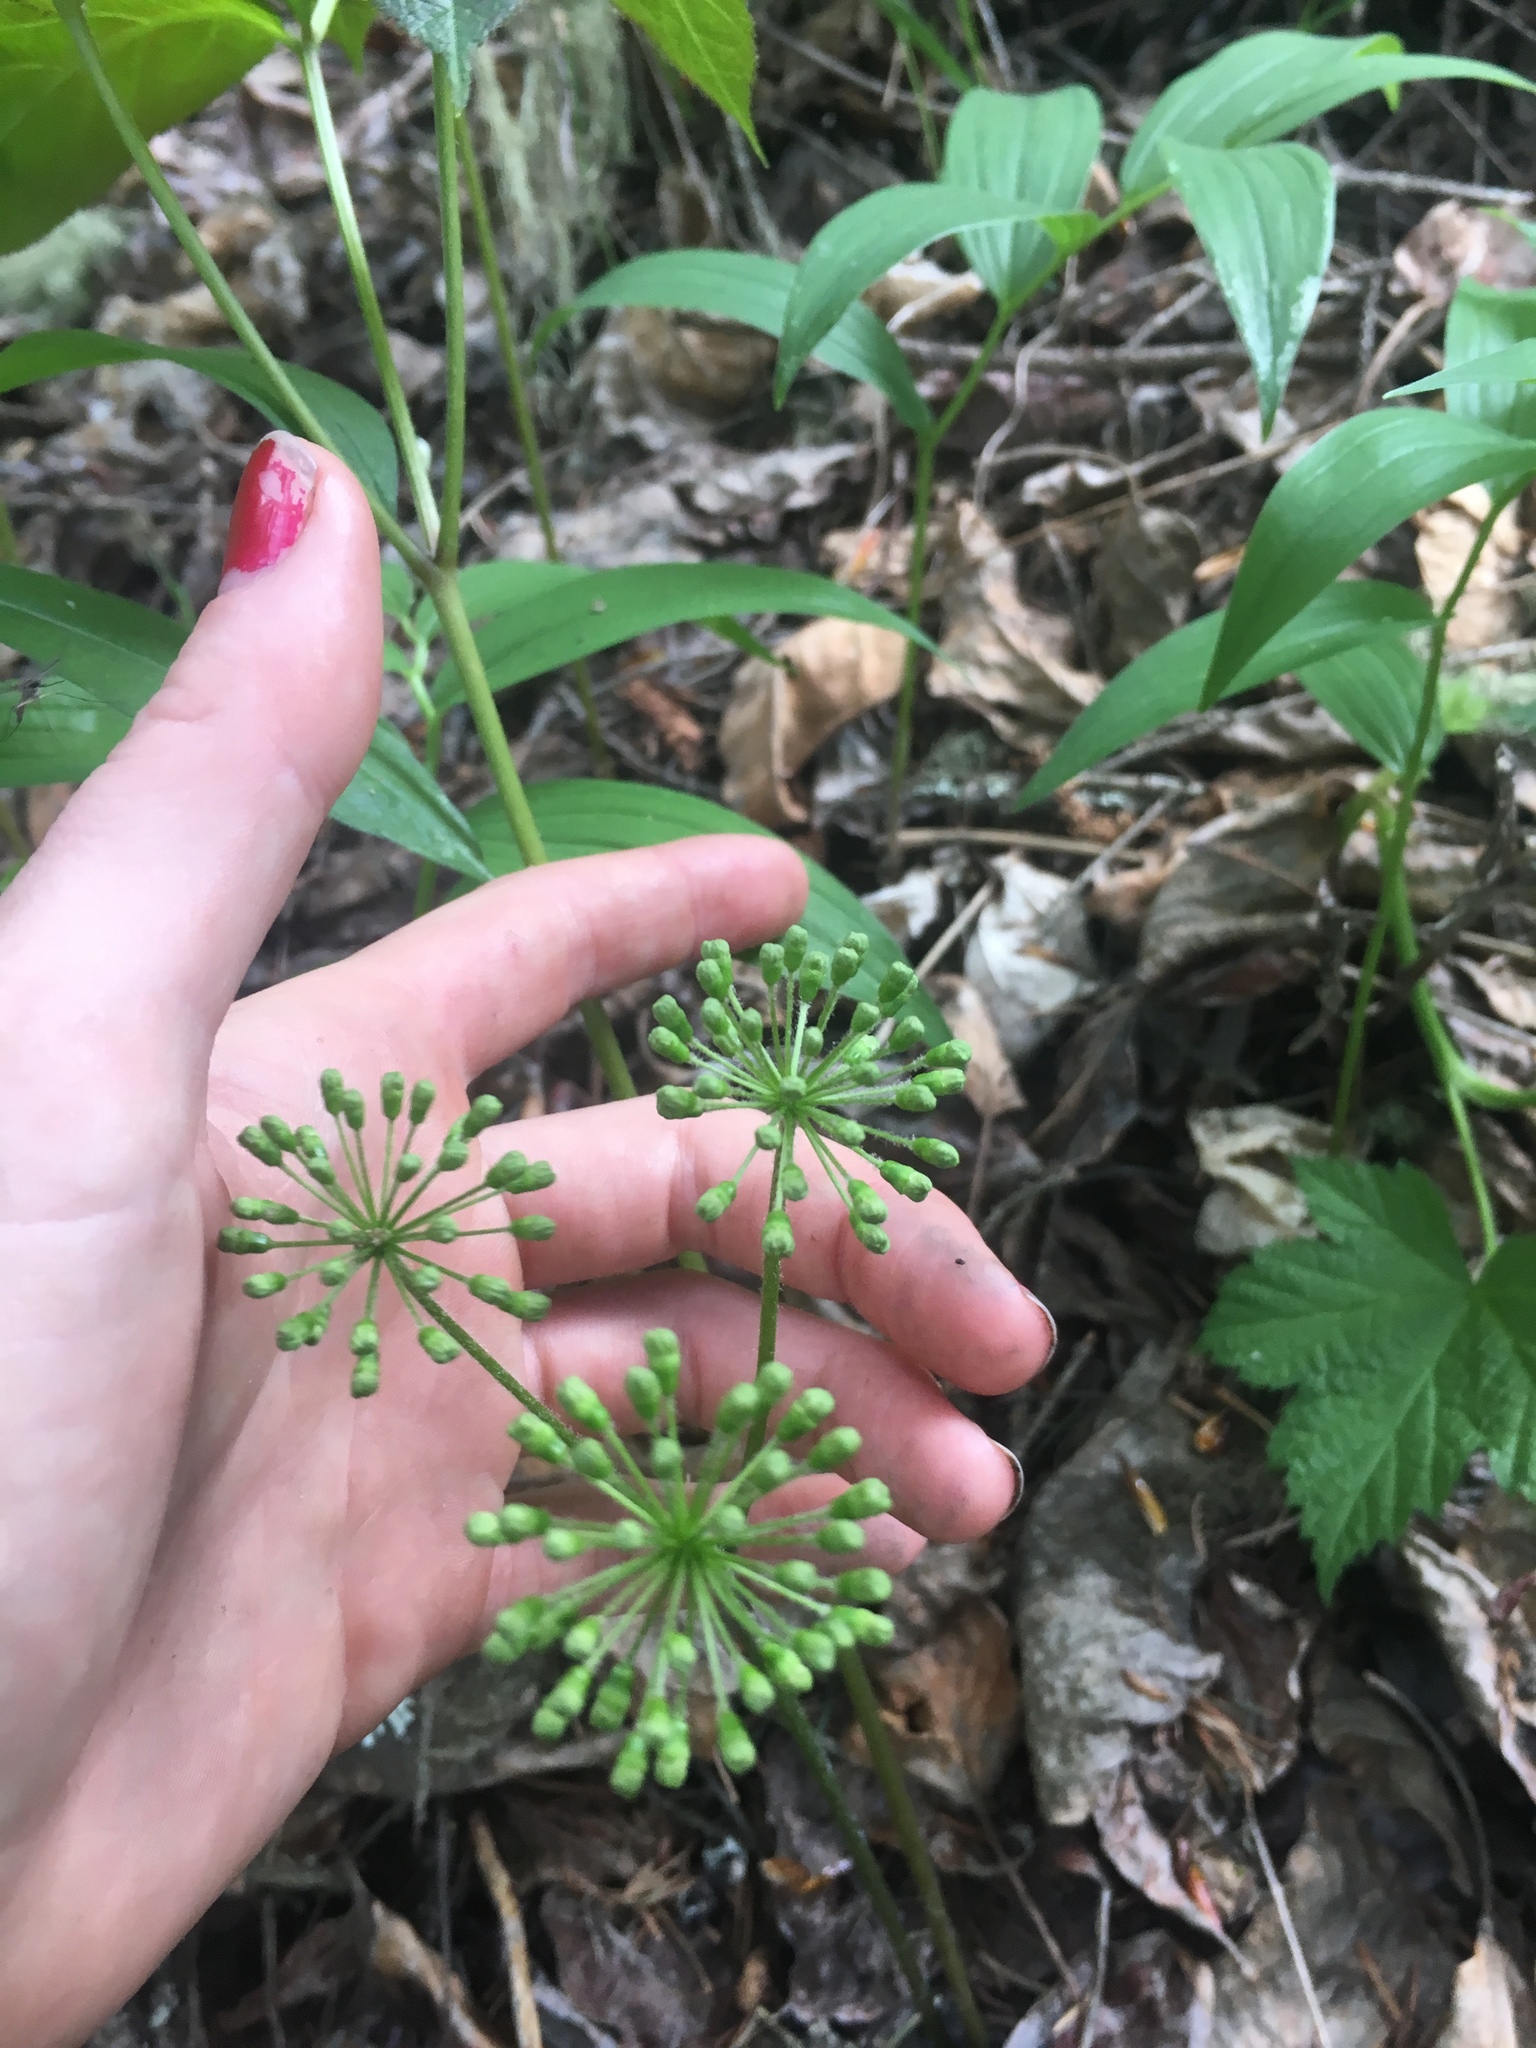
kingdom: Plantae
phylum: Tracheophyta
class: Magnoliopsida
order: Apiales
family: Araliaceae
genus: Aralia
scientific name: Aralia nudicaulis
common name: Wild sarsaparilla
